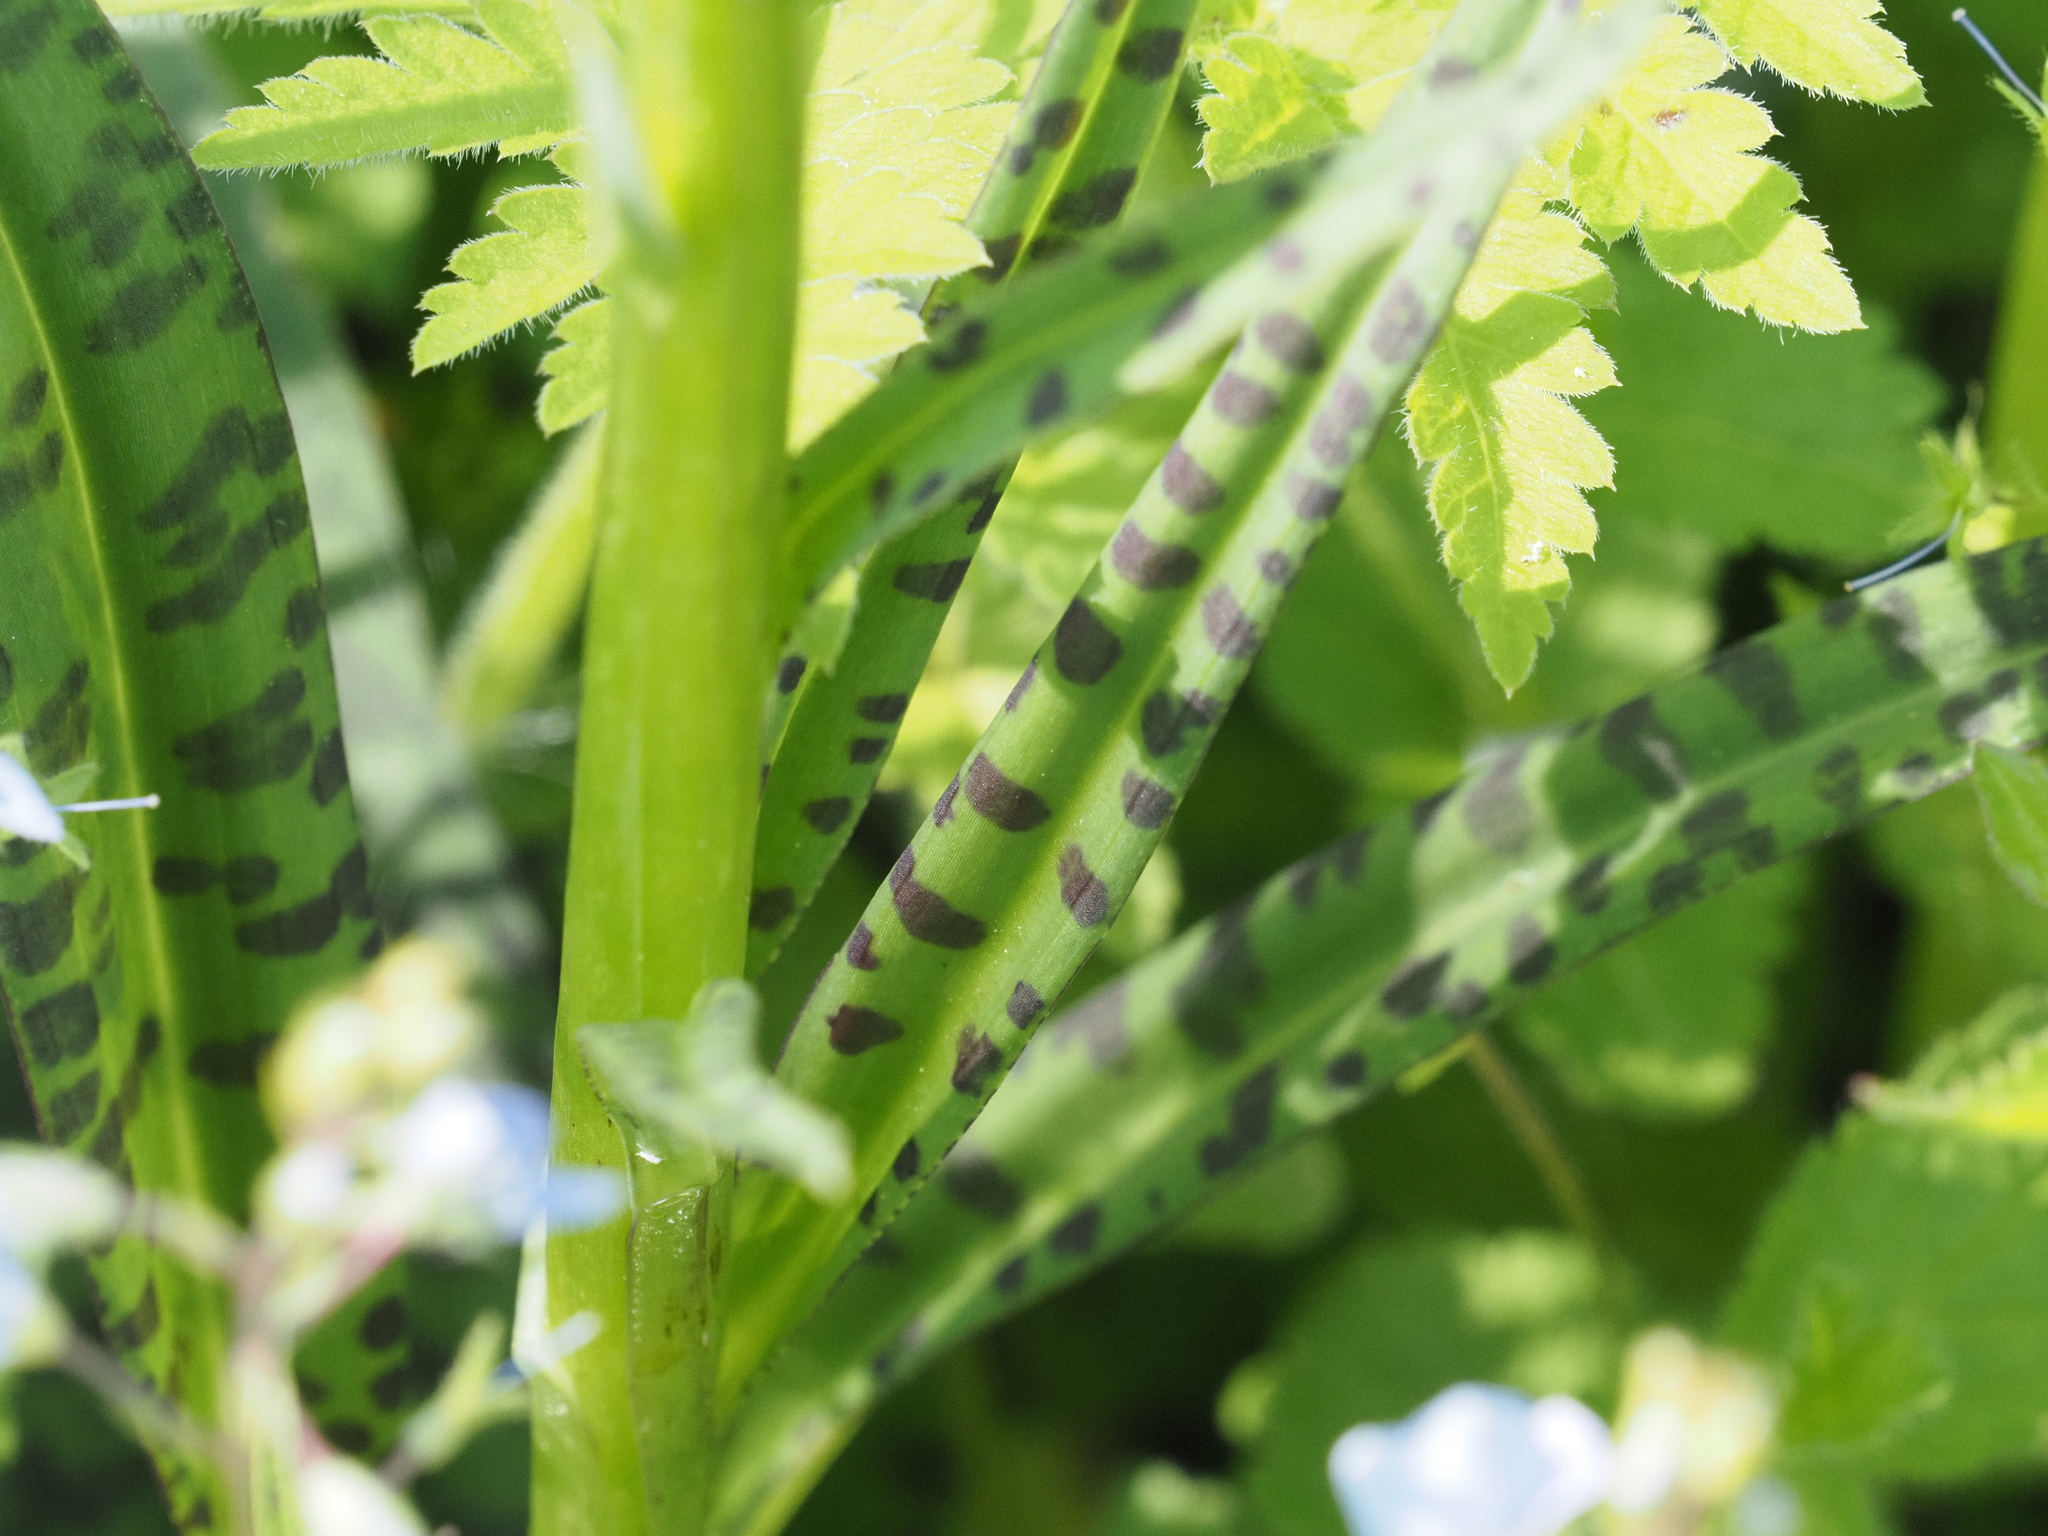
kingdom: Plantae
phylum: Tracheophyta
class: Liliopsida
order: Asparagales
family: Orchidaceae
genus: Dactylorhiza
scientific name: Dactylorhiza maculata
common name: Heath spotted-orchid
